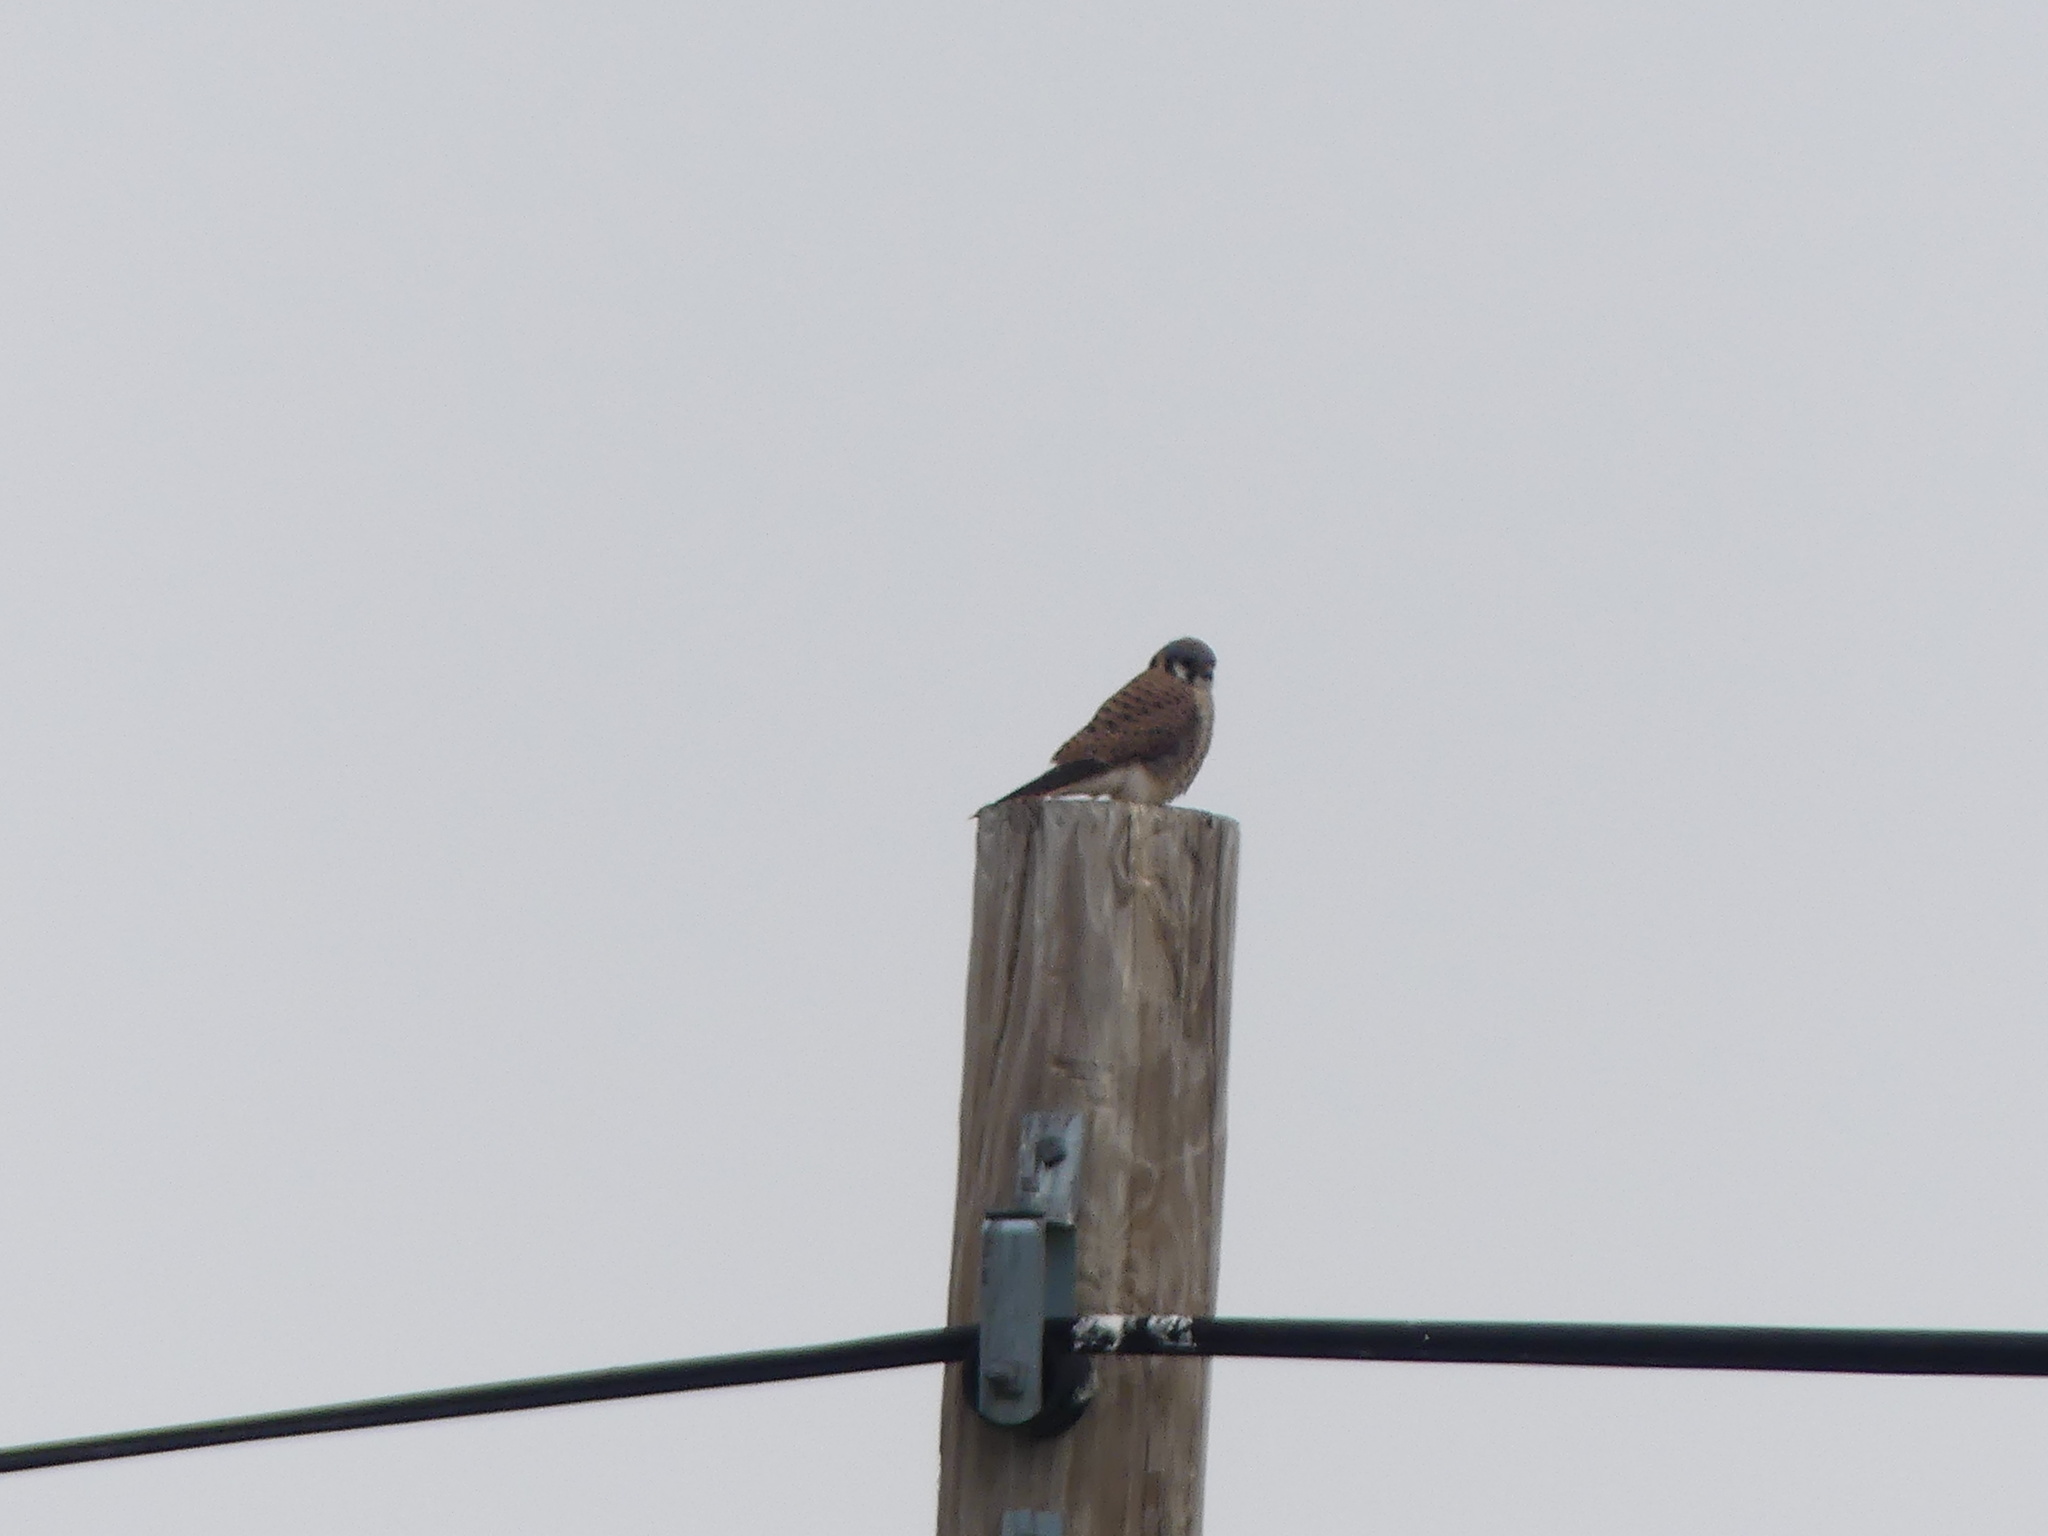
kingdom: Animalia
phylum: Chordata
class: Aves
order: Falconiformes
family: Falconidae
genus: Falco
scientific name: Falco sparverius
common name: American kestrel
